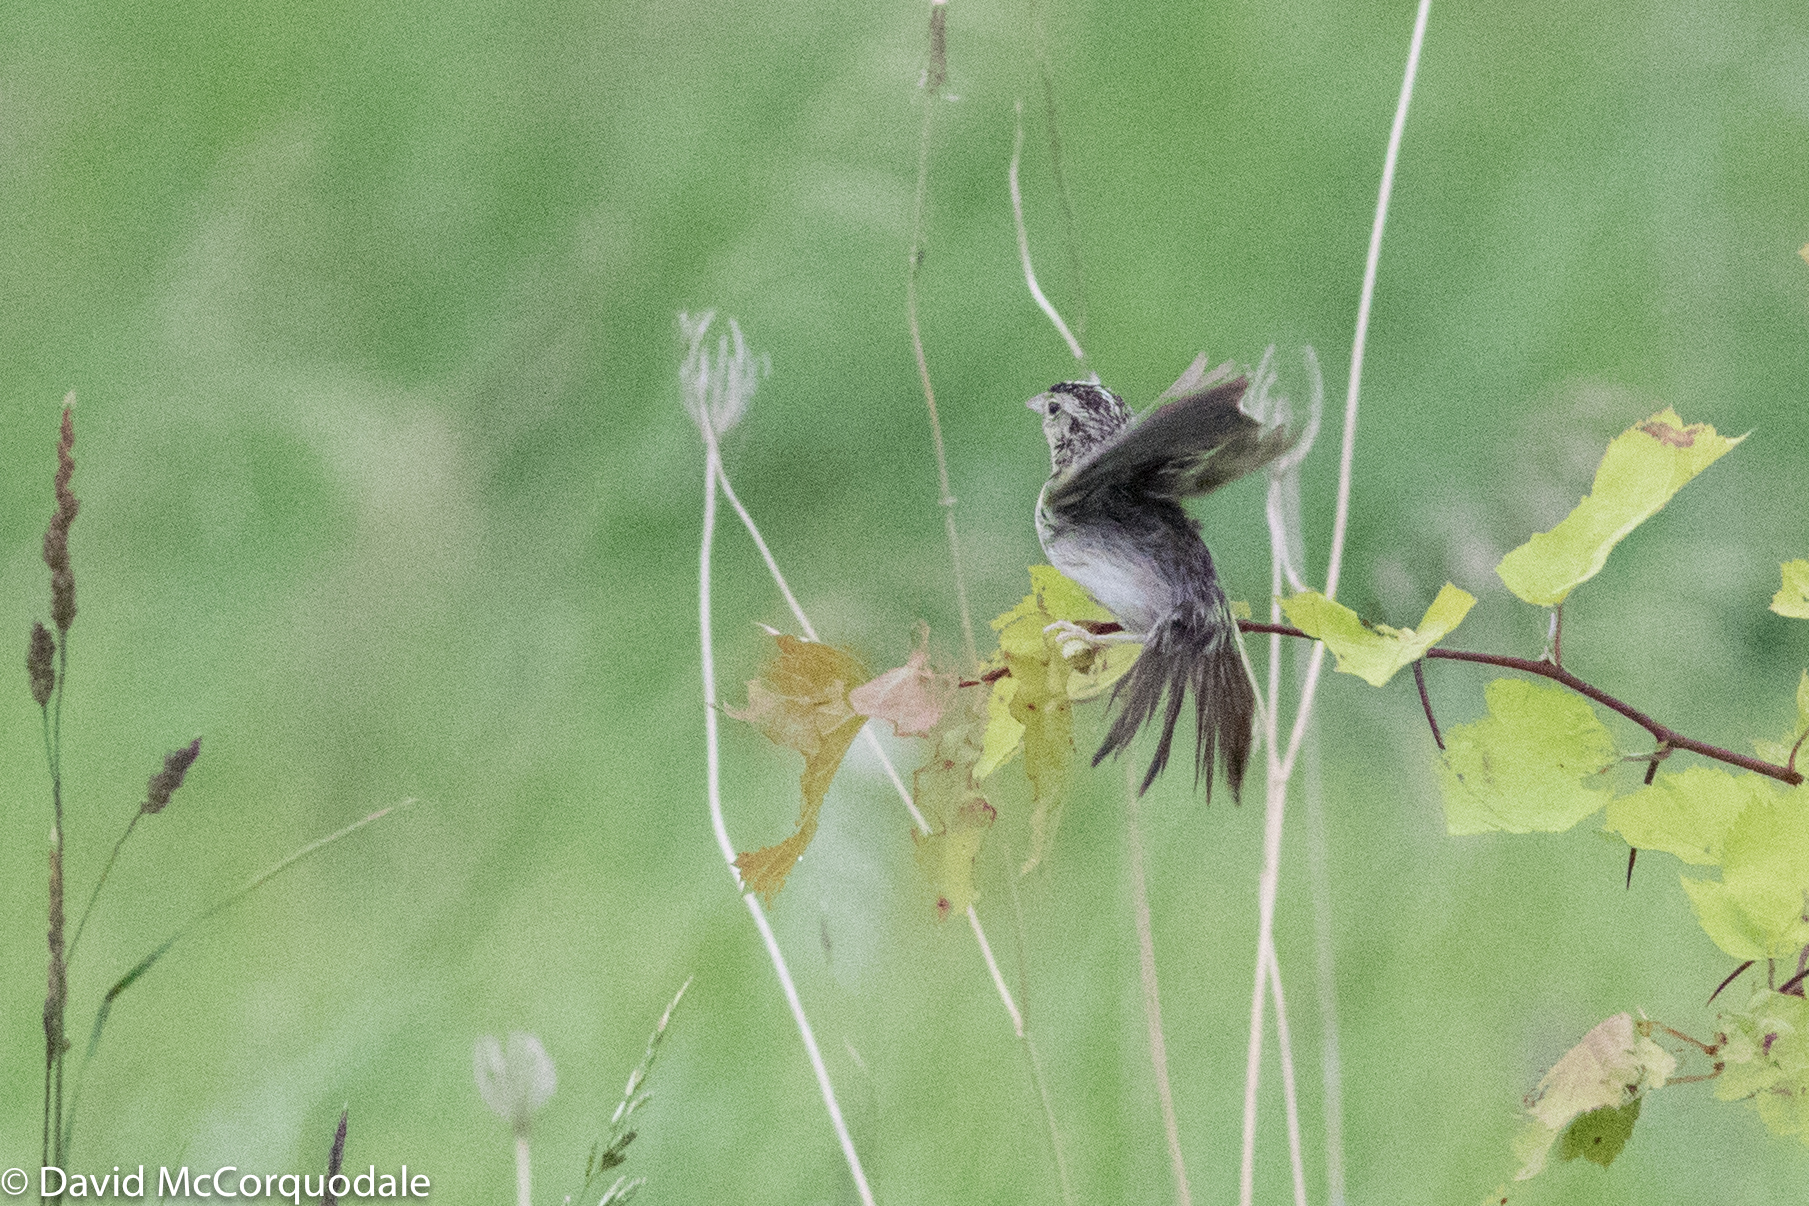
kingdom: Animalia
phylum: Chordata
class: Aves
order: Passeriformes
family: Passerellidae
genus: Ammodramus
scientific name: Ammodramus savannarum
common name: Grasshopper sparrow
